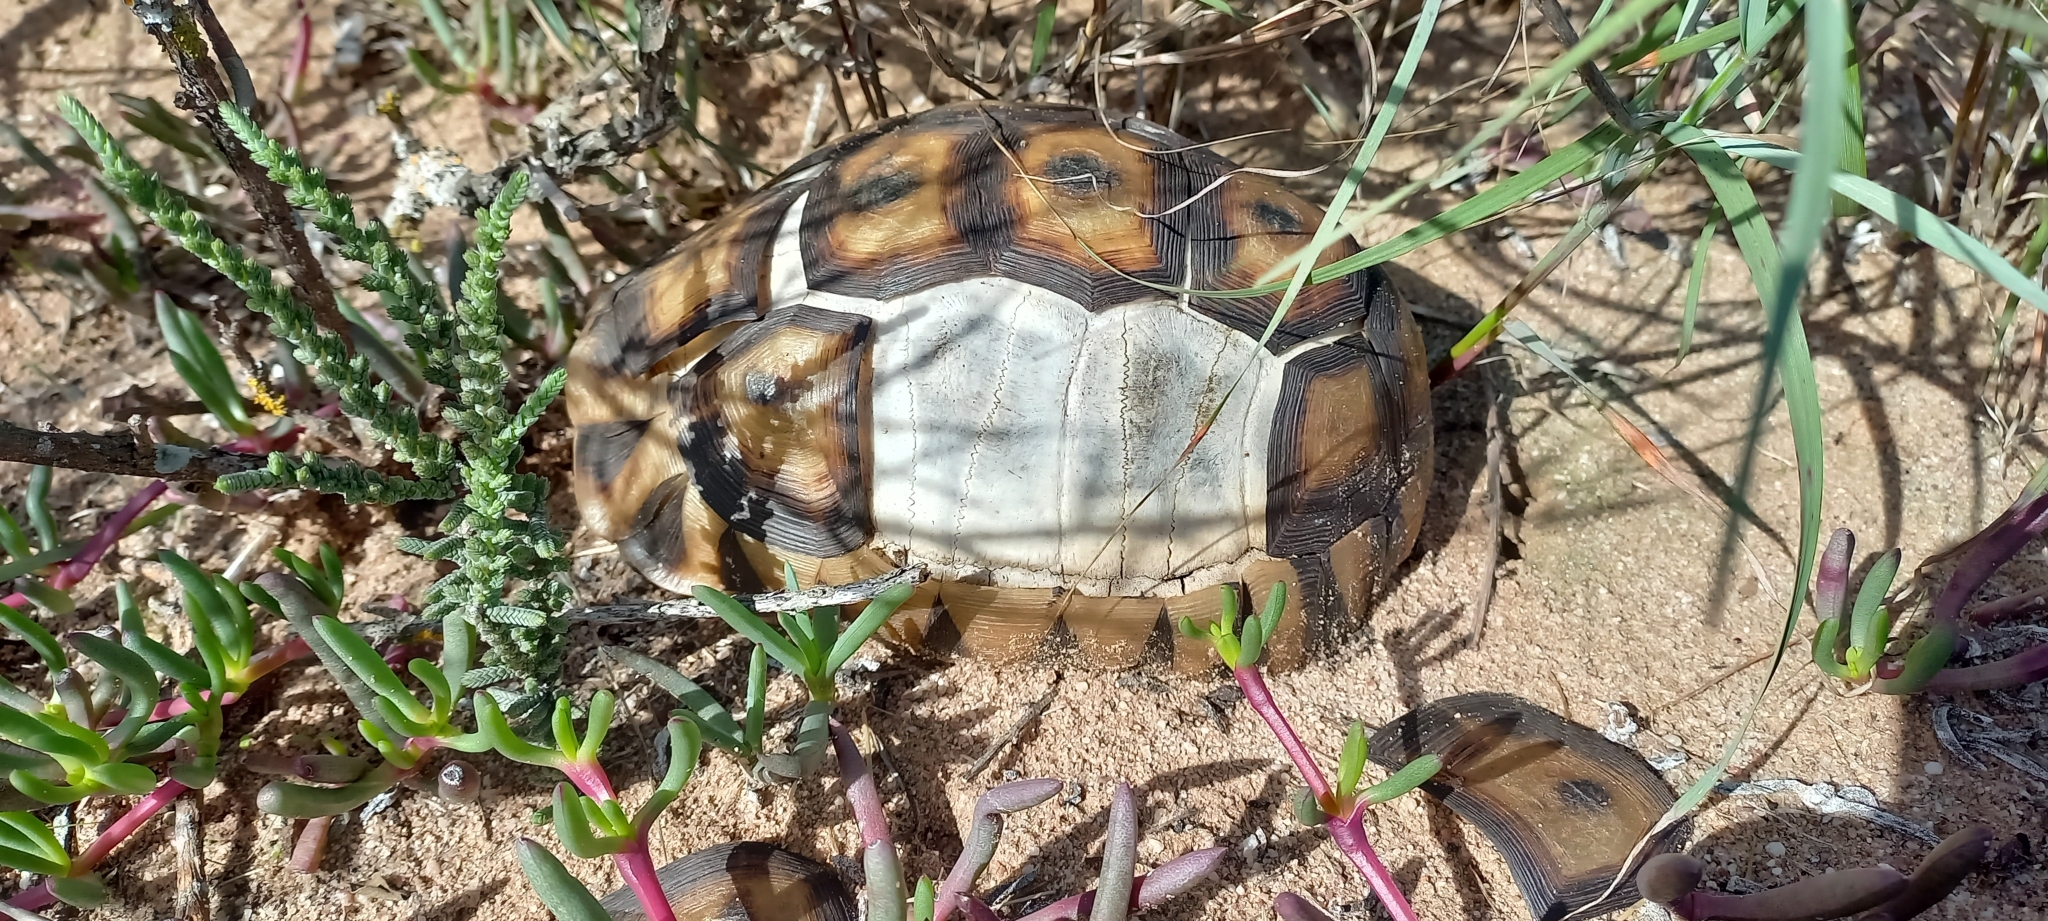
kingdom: Animalia
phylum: Chordata
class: Testudines
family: Testudinidae
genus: Chersina
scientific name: Chersina angulata
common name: South african bowsprit tortoise
